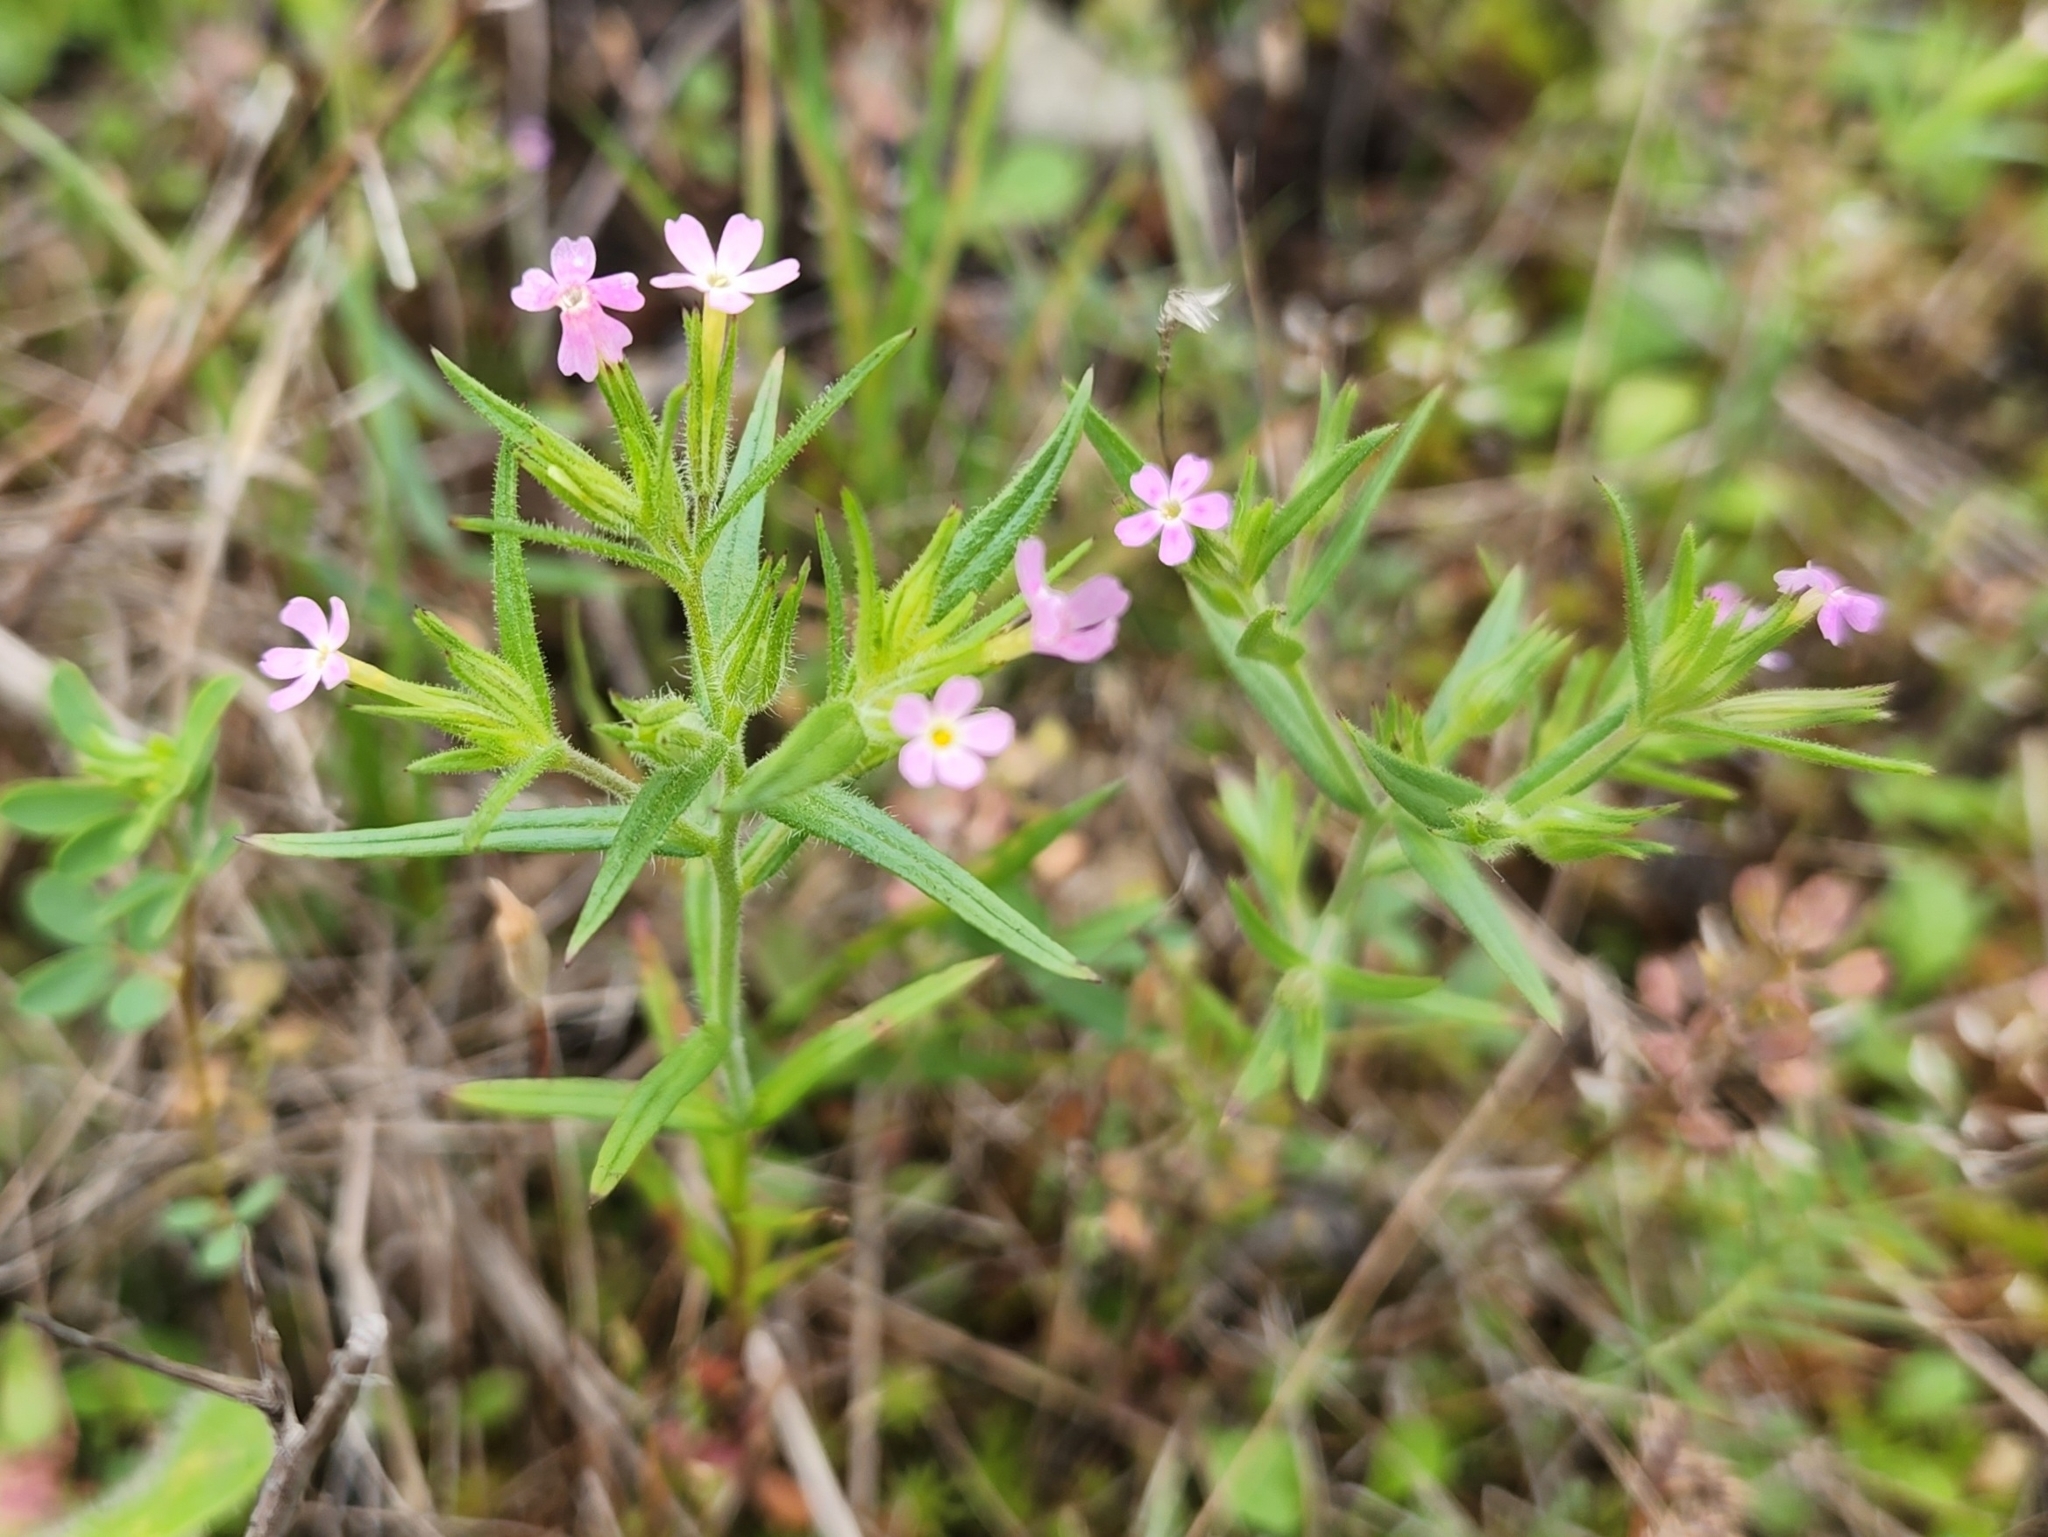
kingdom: Plantae
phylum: Tracheophyta
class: Magnoliopsida
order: Ericales
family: Polemoniaceae
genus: Phlox
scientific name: Phlox gracilis
